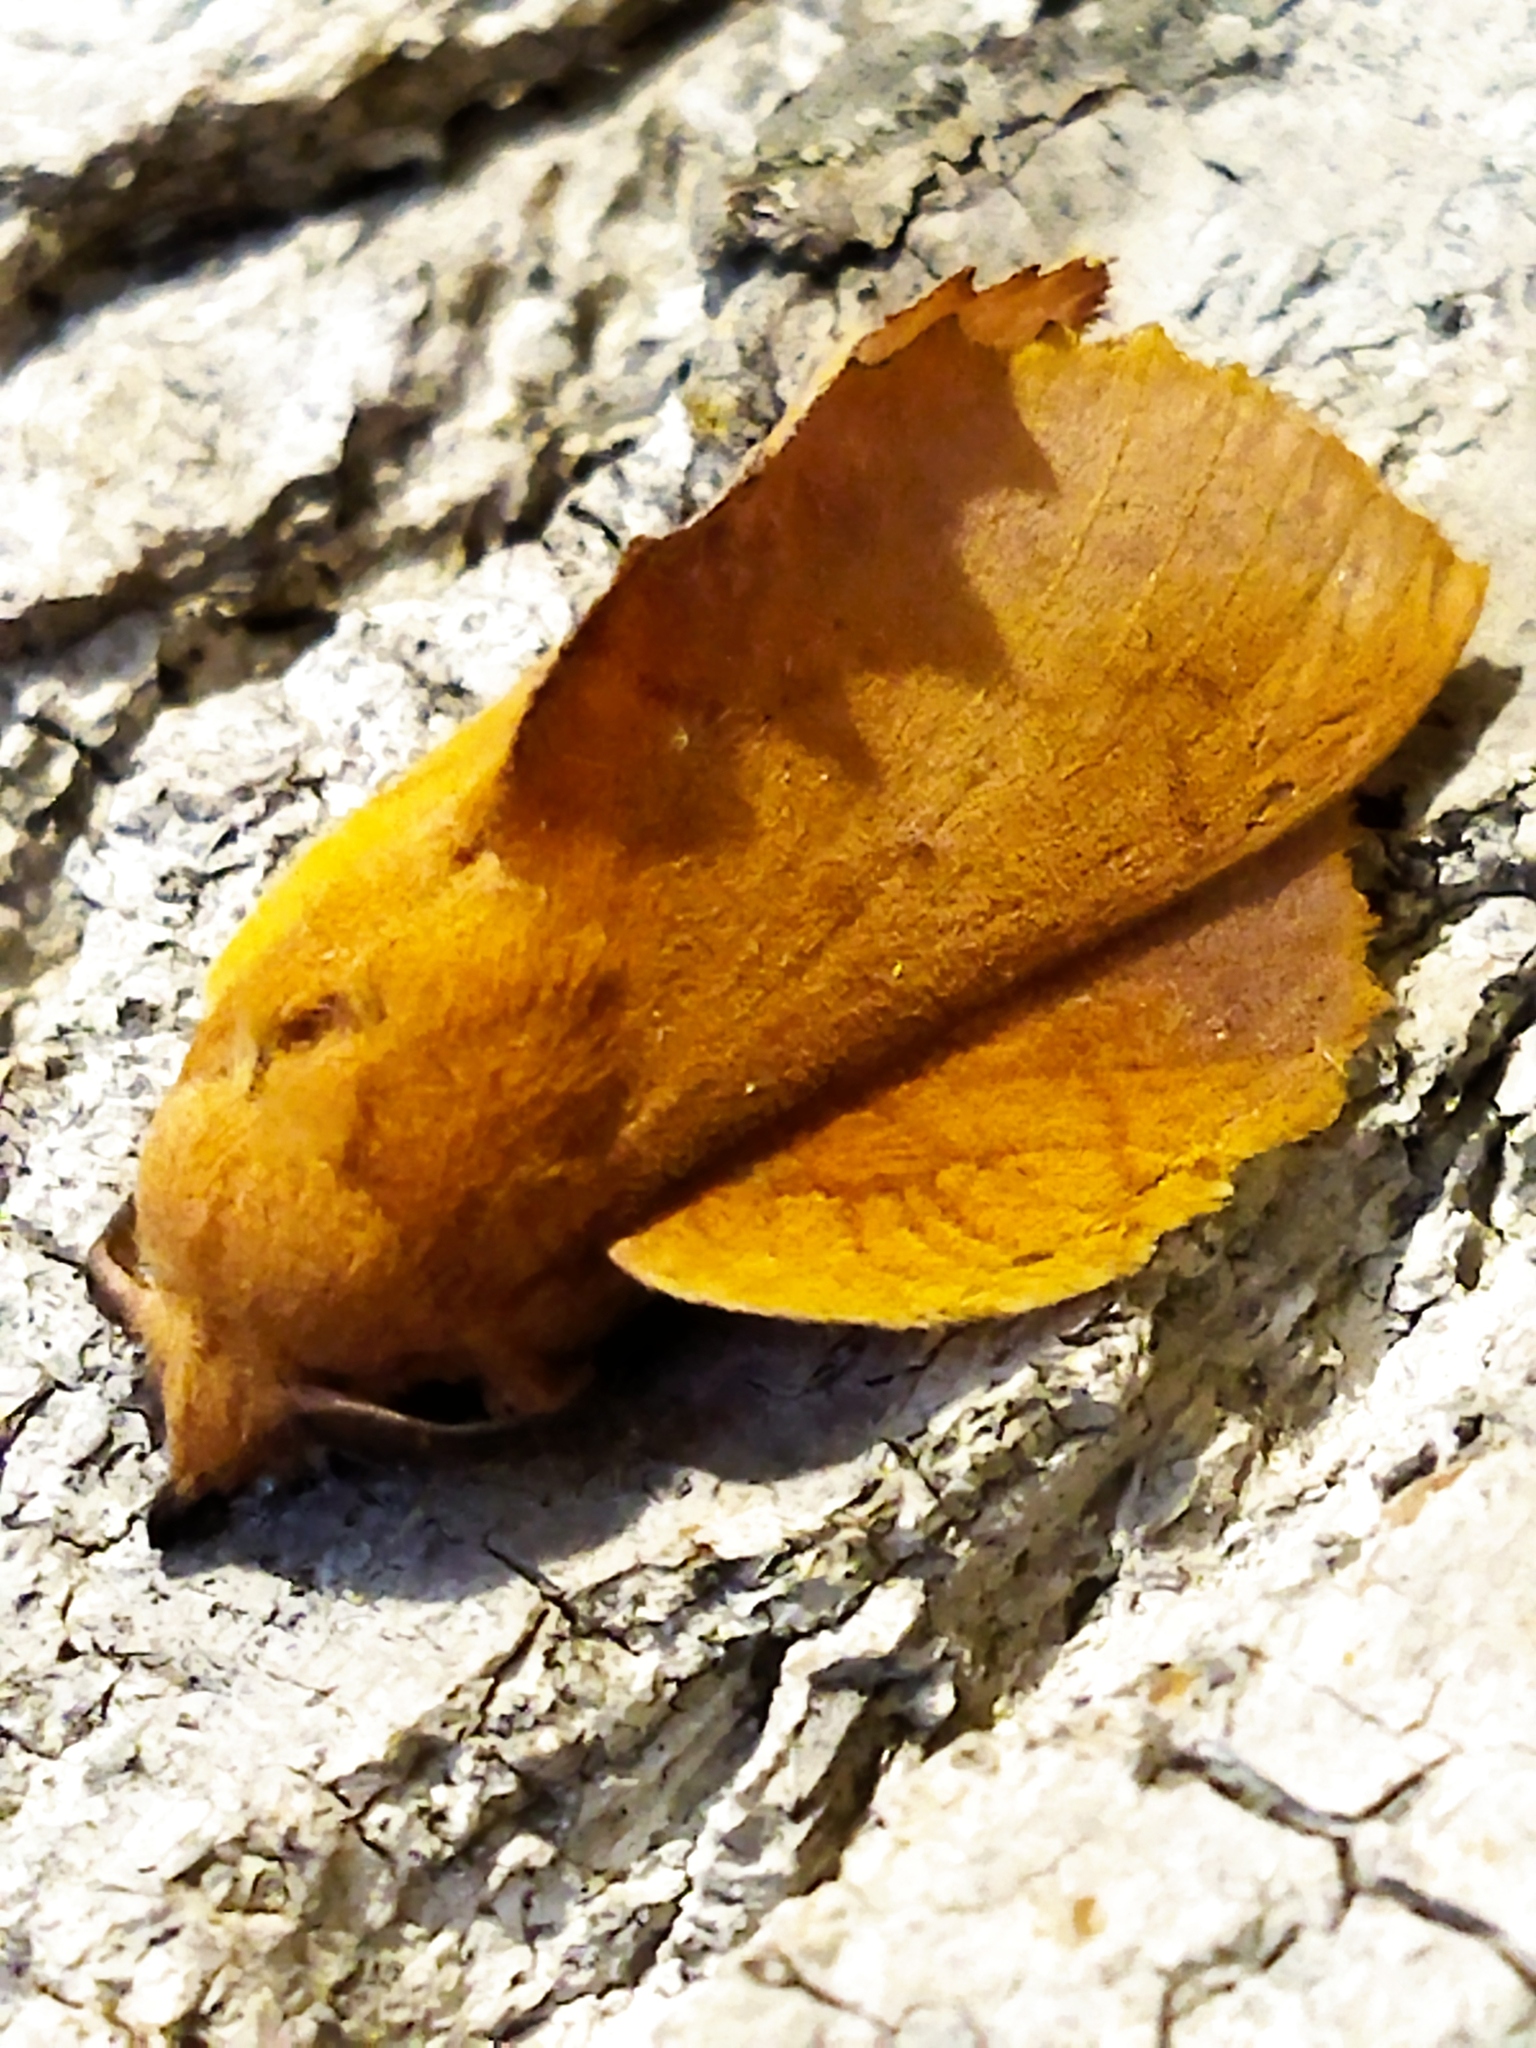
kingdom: Animalia
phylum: Arthropoda
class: Insecta
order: Lepidoptera
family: Lasiocampidae
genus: Gastropacha
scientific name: Gastropacha quercifolia
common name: Lappet
